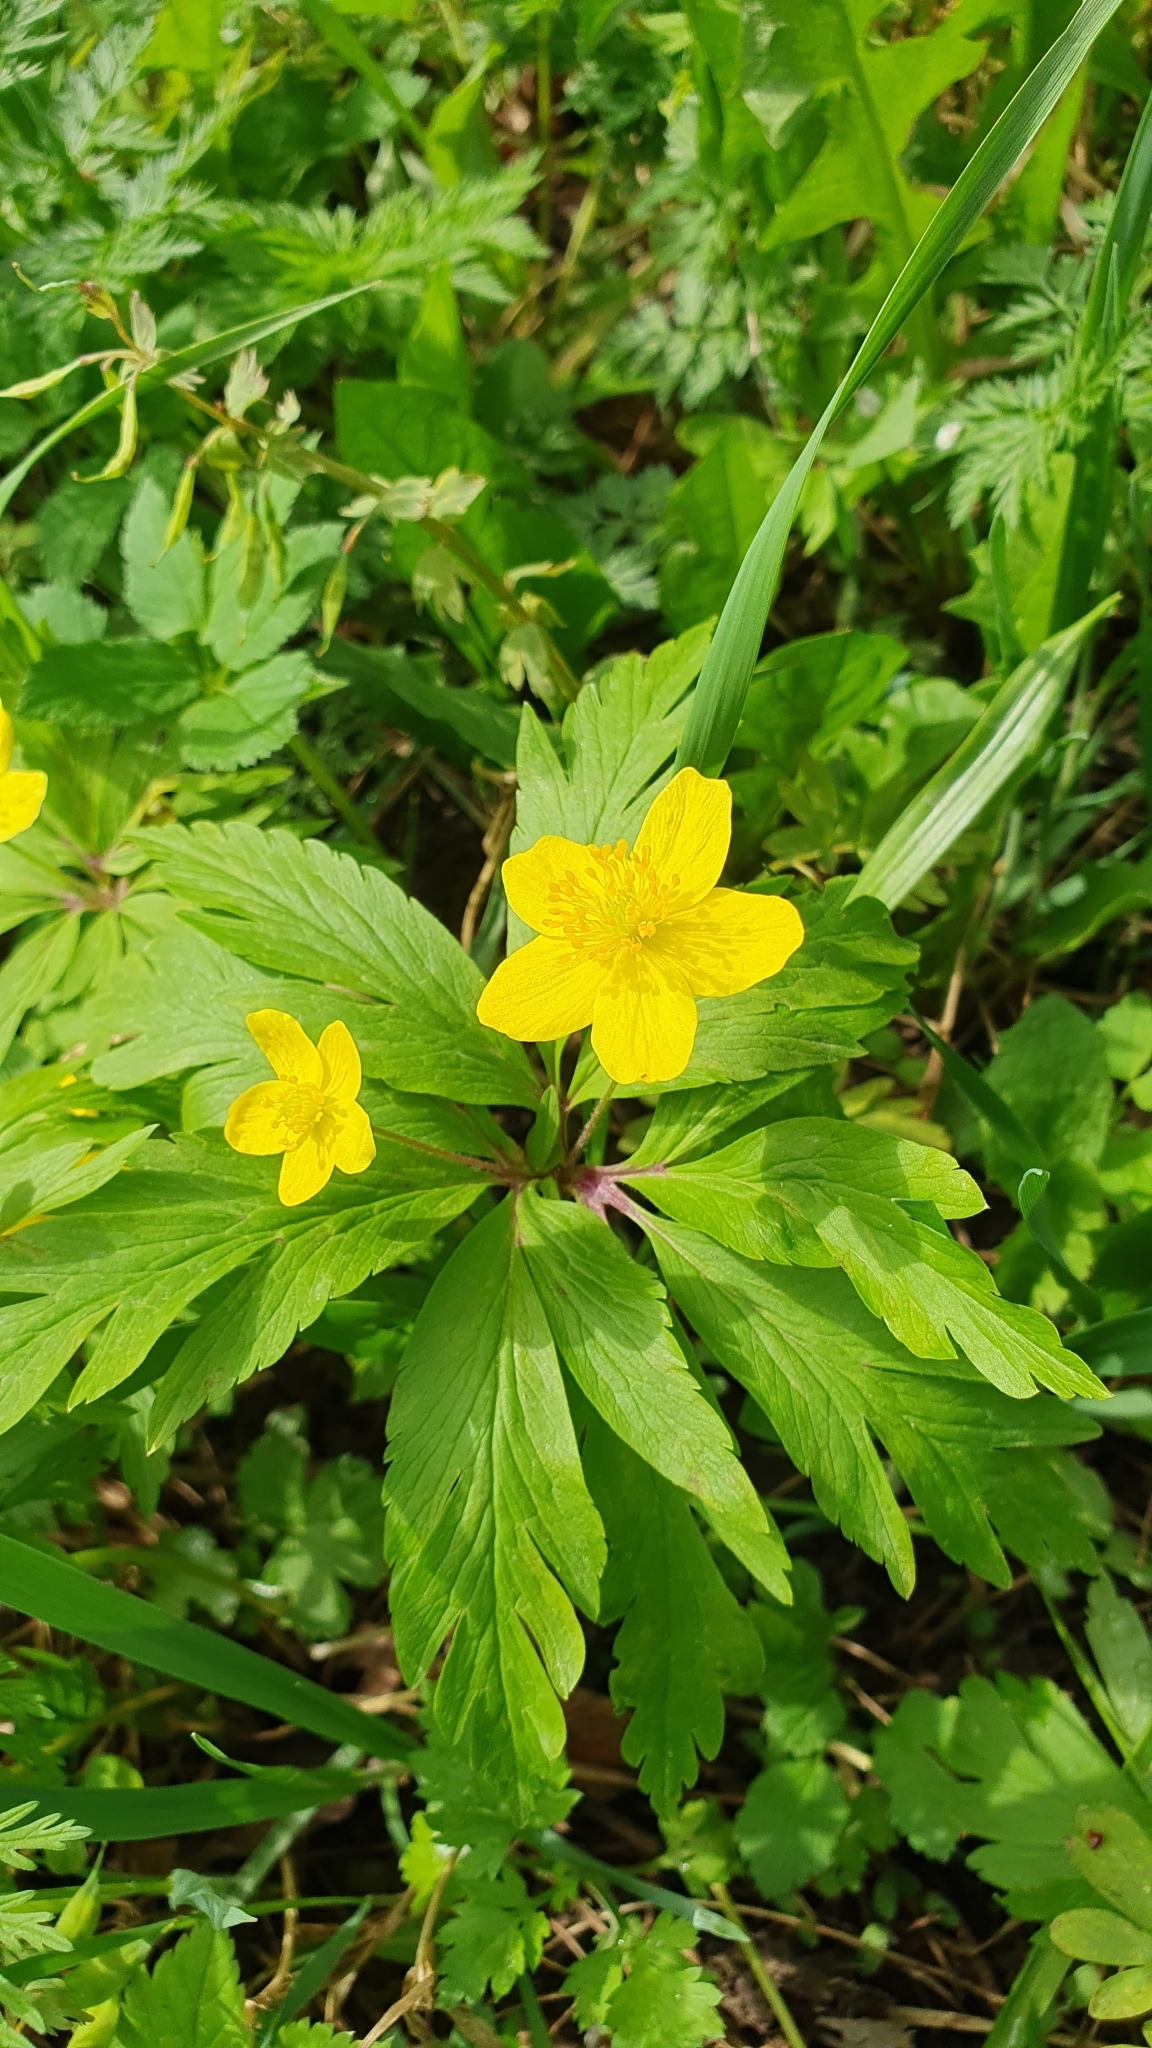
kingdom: Plantae
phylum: Tracheophyta
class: Magnoliopsida
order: Ranunculales
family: Ranunculaceae
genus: Anemone
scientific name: Anemone ranunculoides
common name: Yellow anemone
